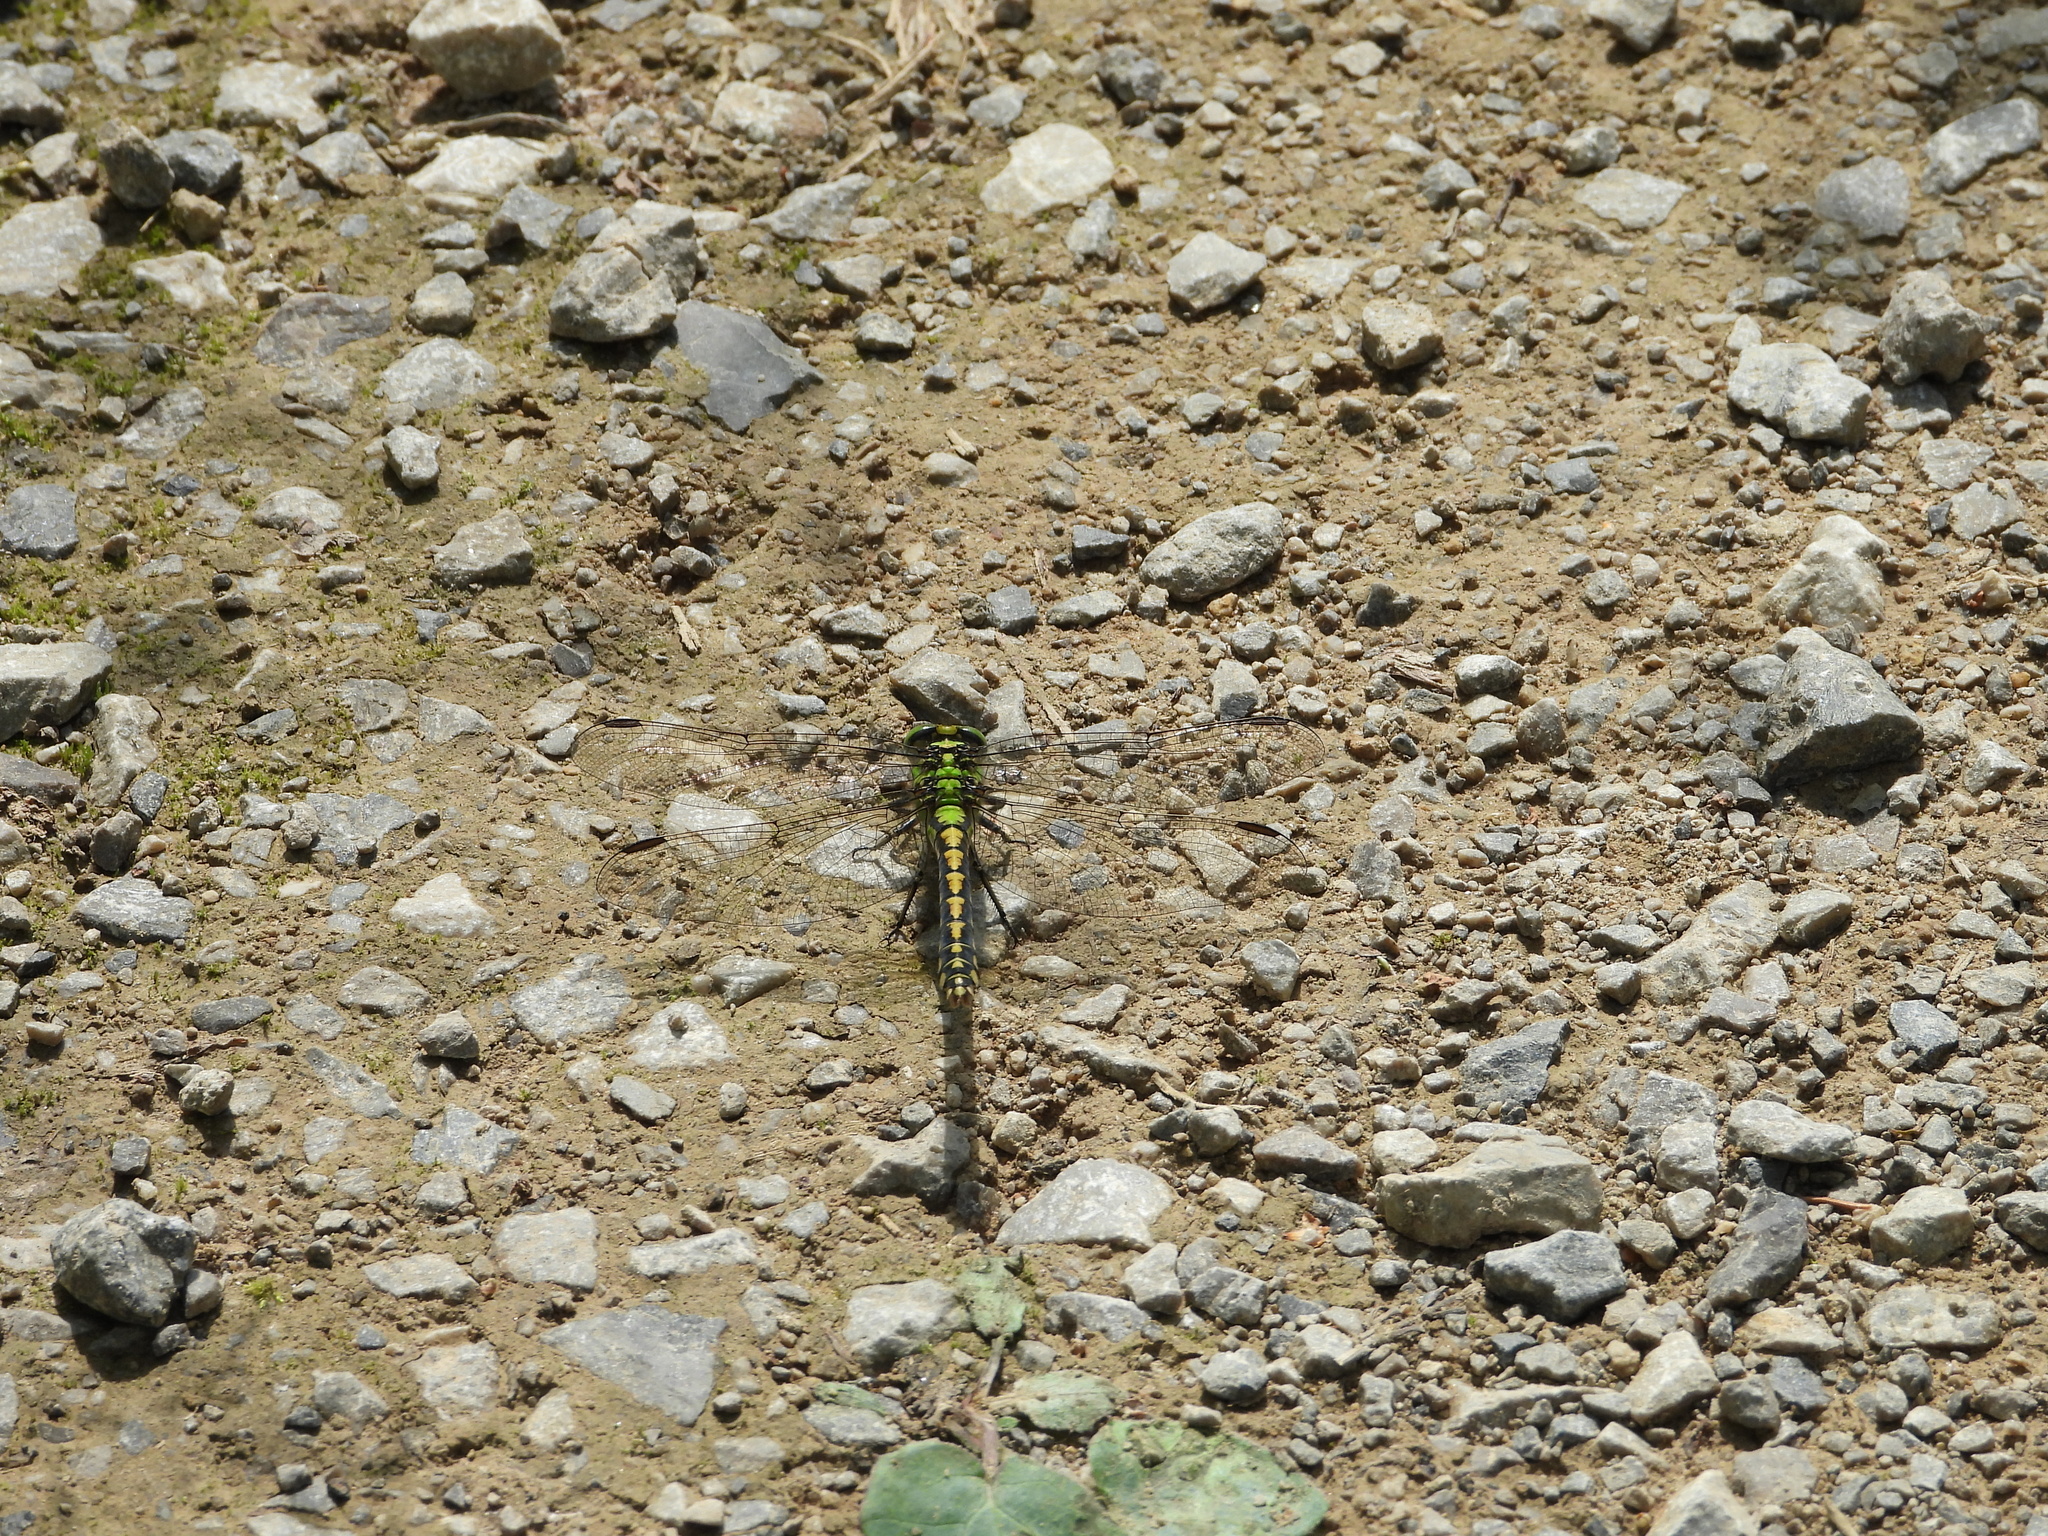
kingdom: Animalia
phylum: Arthropoda
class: Insecta
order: Odonata
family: Gomphidae
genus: Ophiogomphus
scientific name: Ophiogomphus cecilia
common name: Green snaketail
